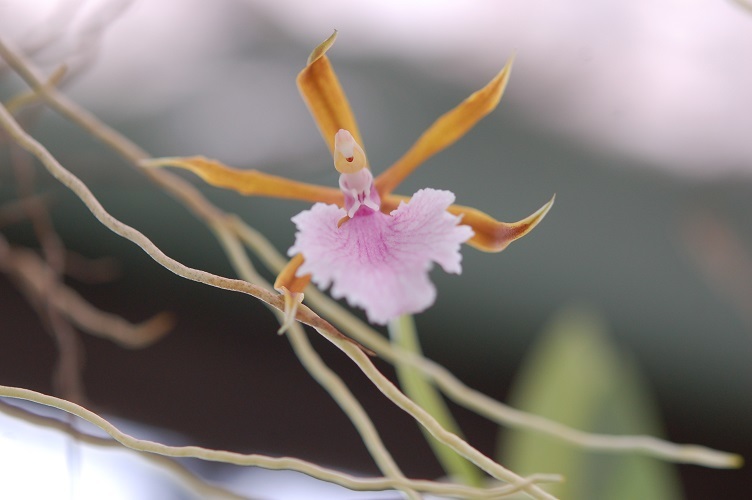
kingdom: Plantae
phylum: Tracheophyta
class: Liliopsida
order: Asparagales
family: Orchidaceae
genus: Rhynchostele
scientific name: Rhynchostele stellata
